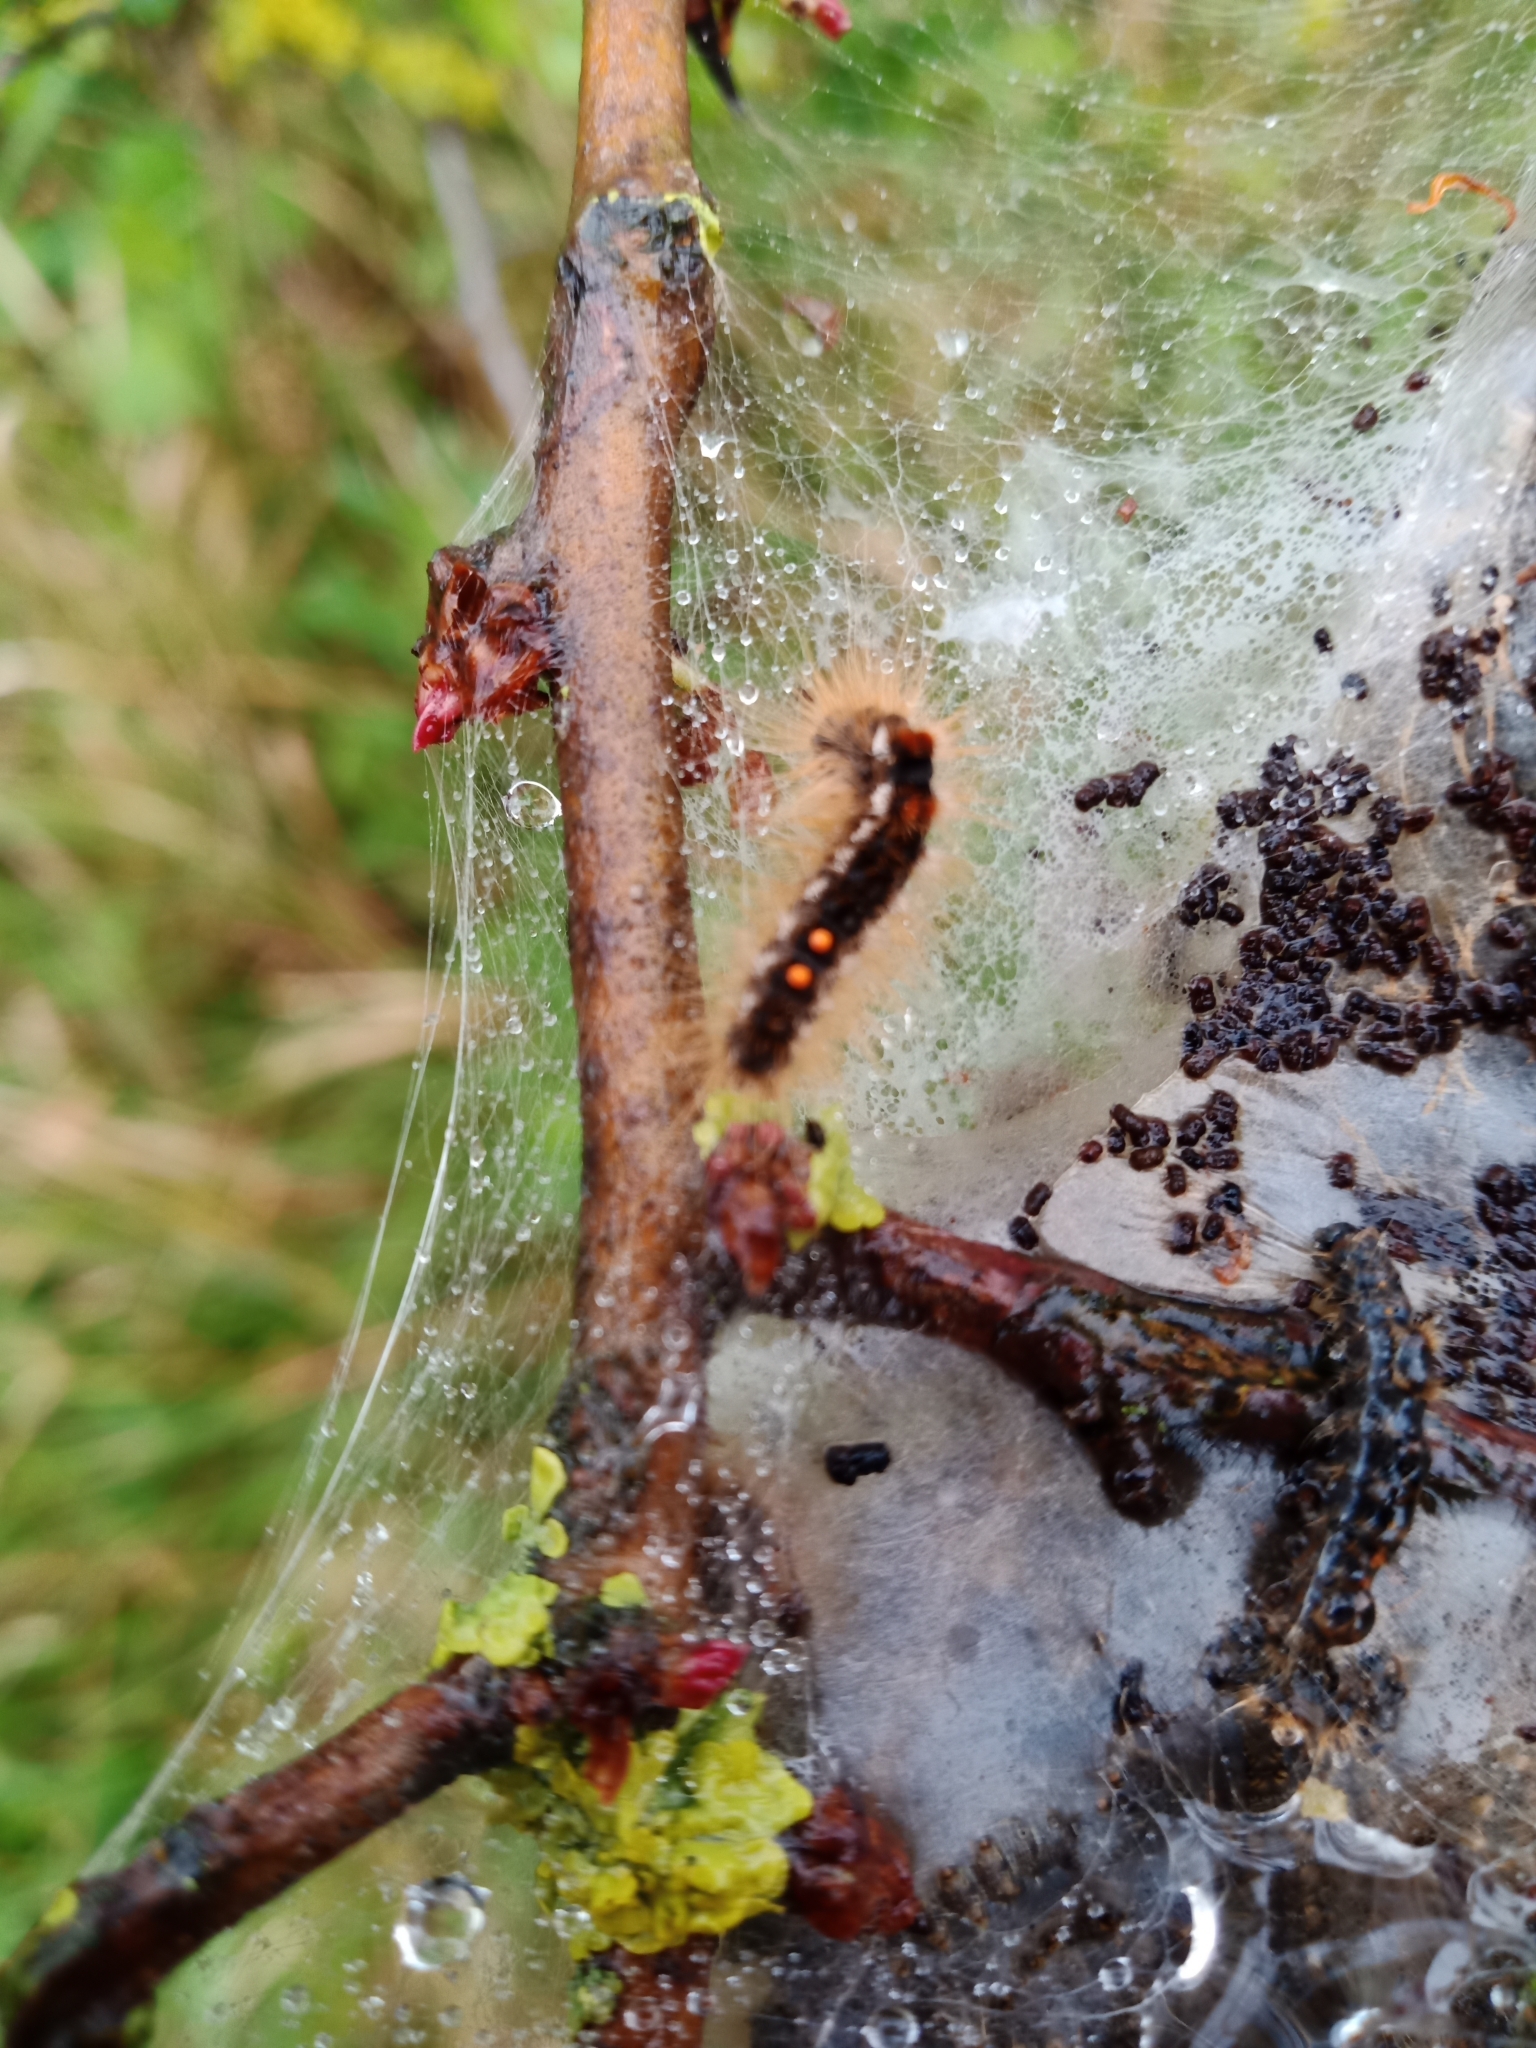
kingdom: Animalia
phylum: Arthropoda
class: Insecta
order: Lepidoptera
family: Erebidae
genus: Euproctis
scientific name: Euproctis chrysorrhoea
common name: Brown-tail
